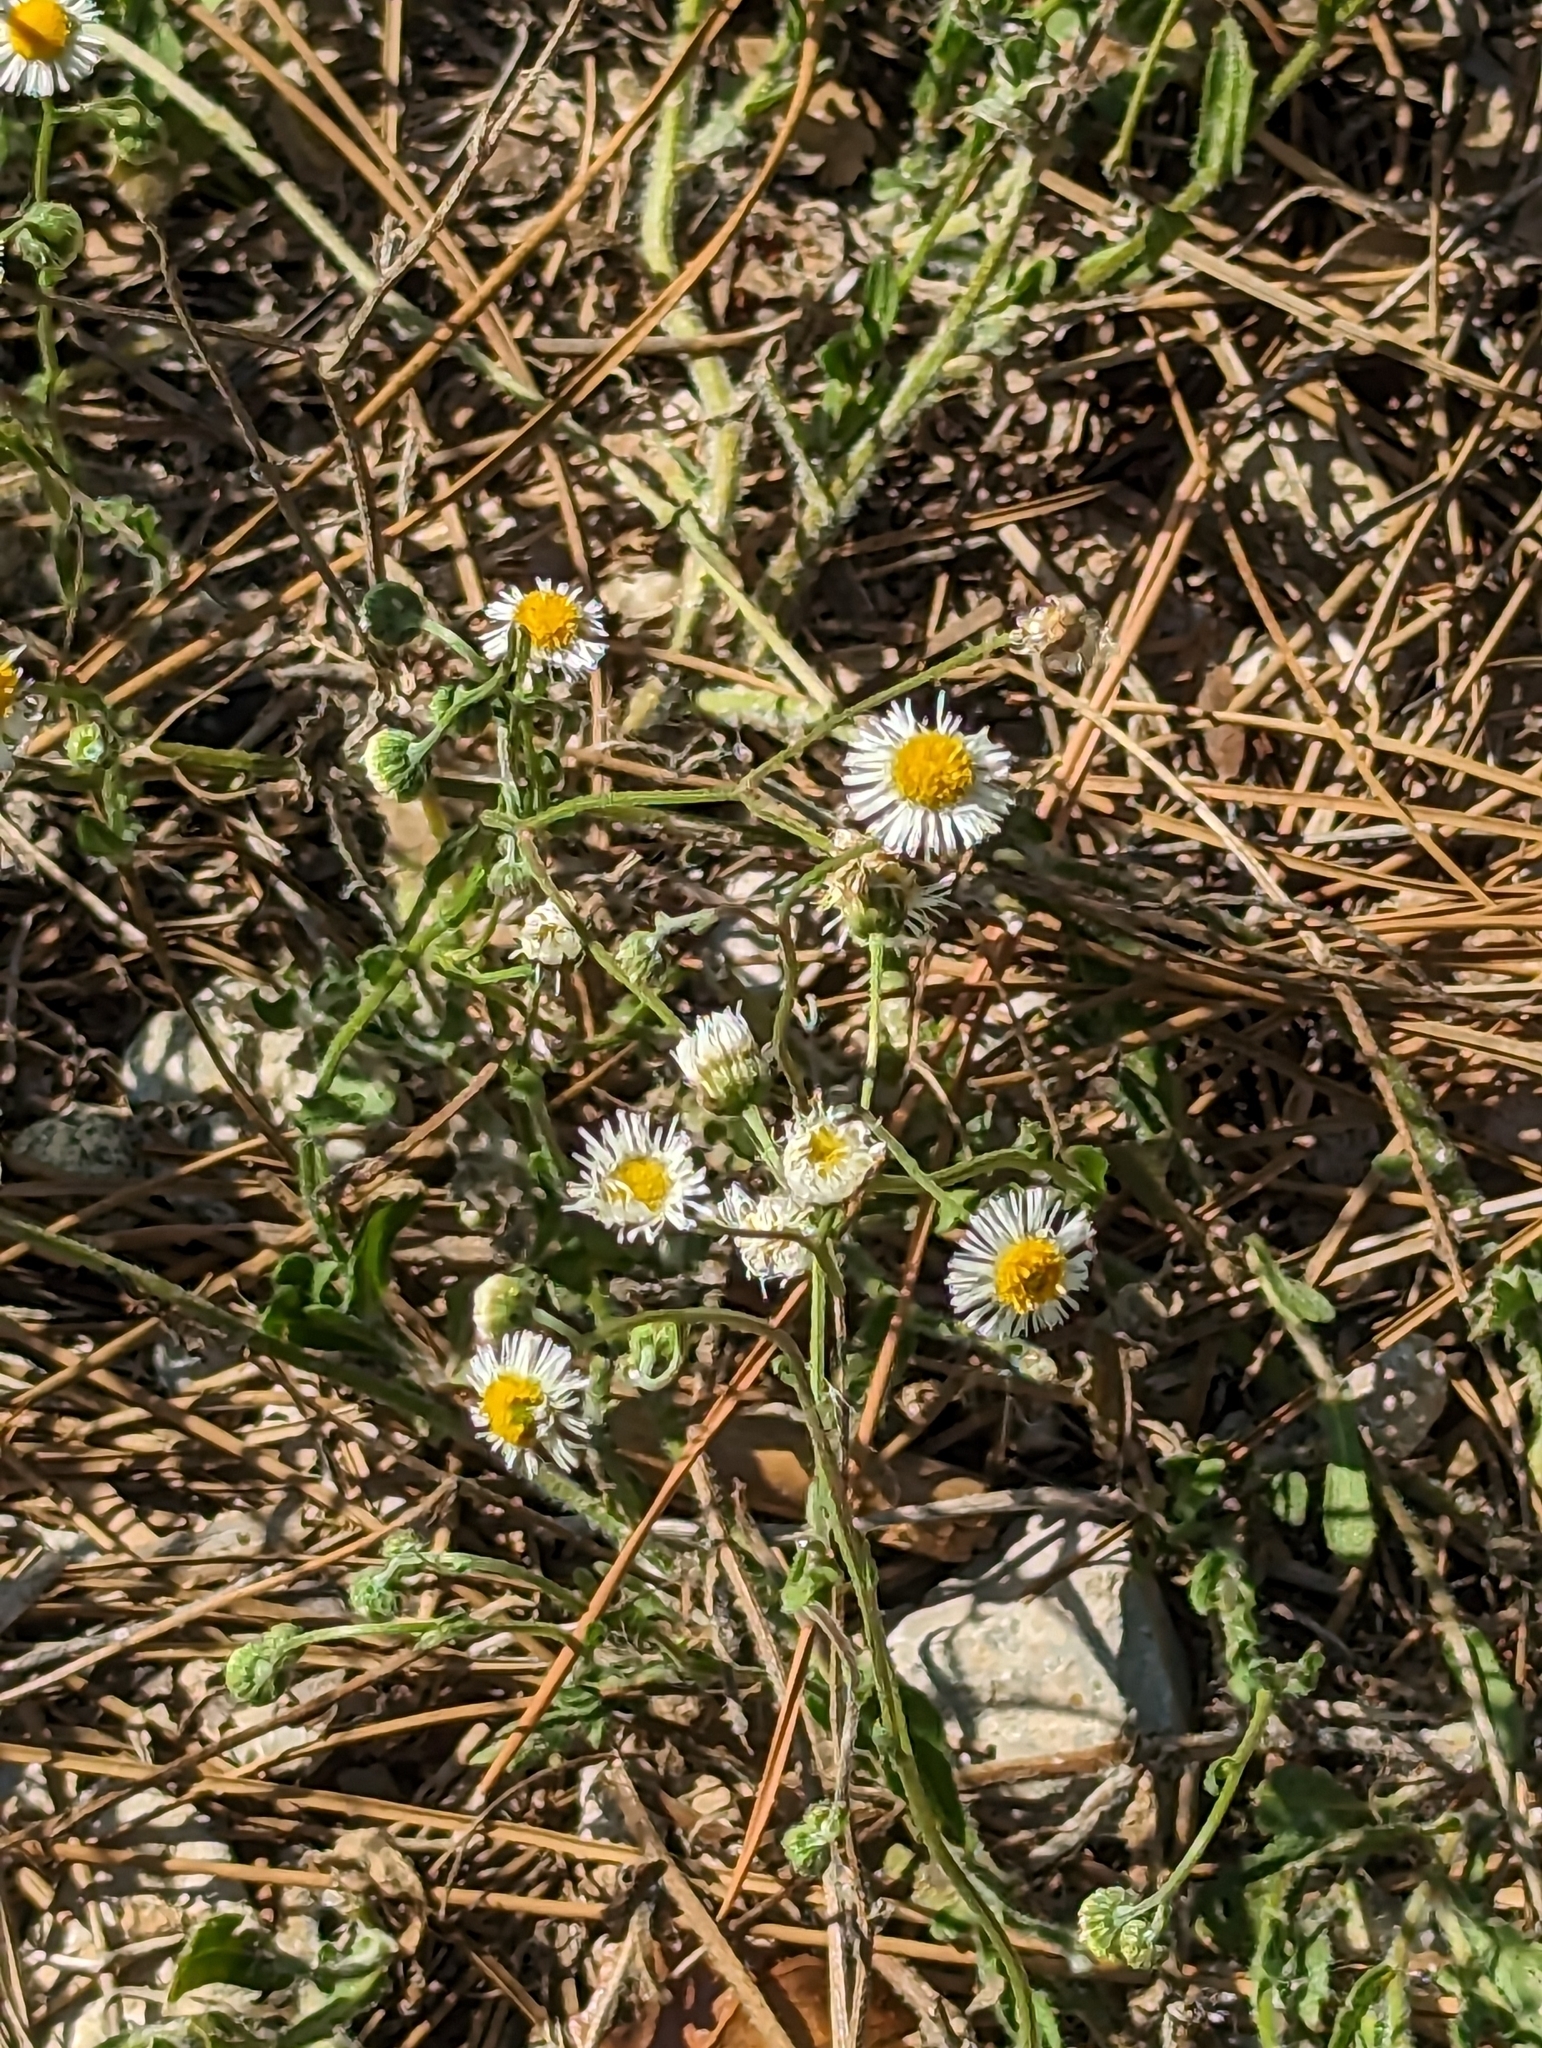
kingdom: Plantae
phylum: Tracheophyta
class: Magnoliopsida
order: Asterales
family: Asteraceae
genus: Erigeron
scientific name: Erigeron quercifolius
